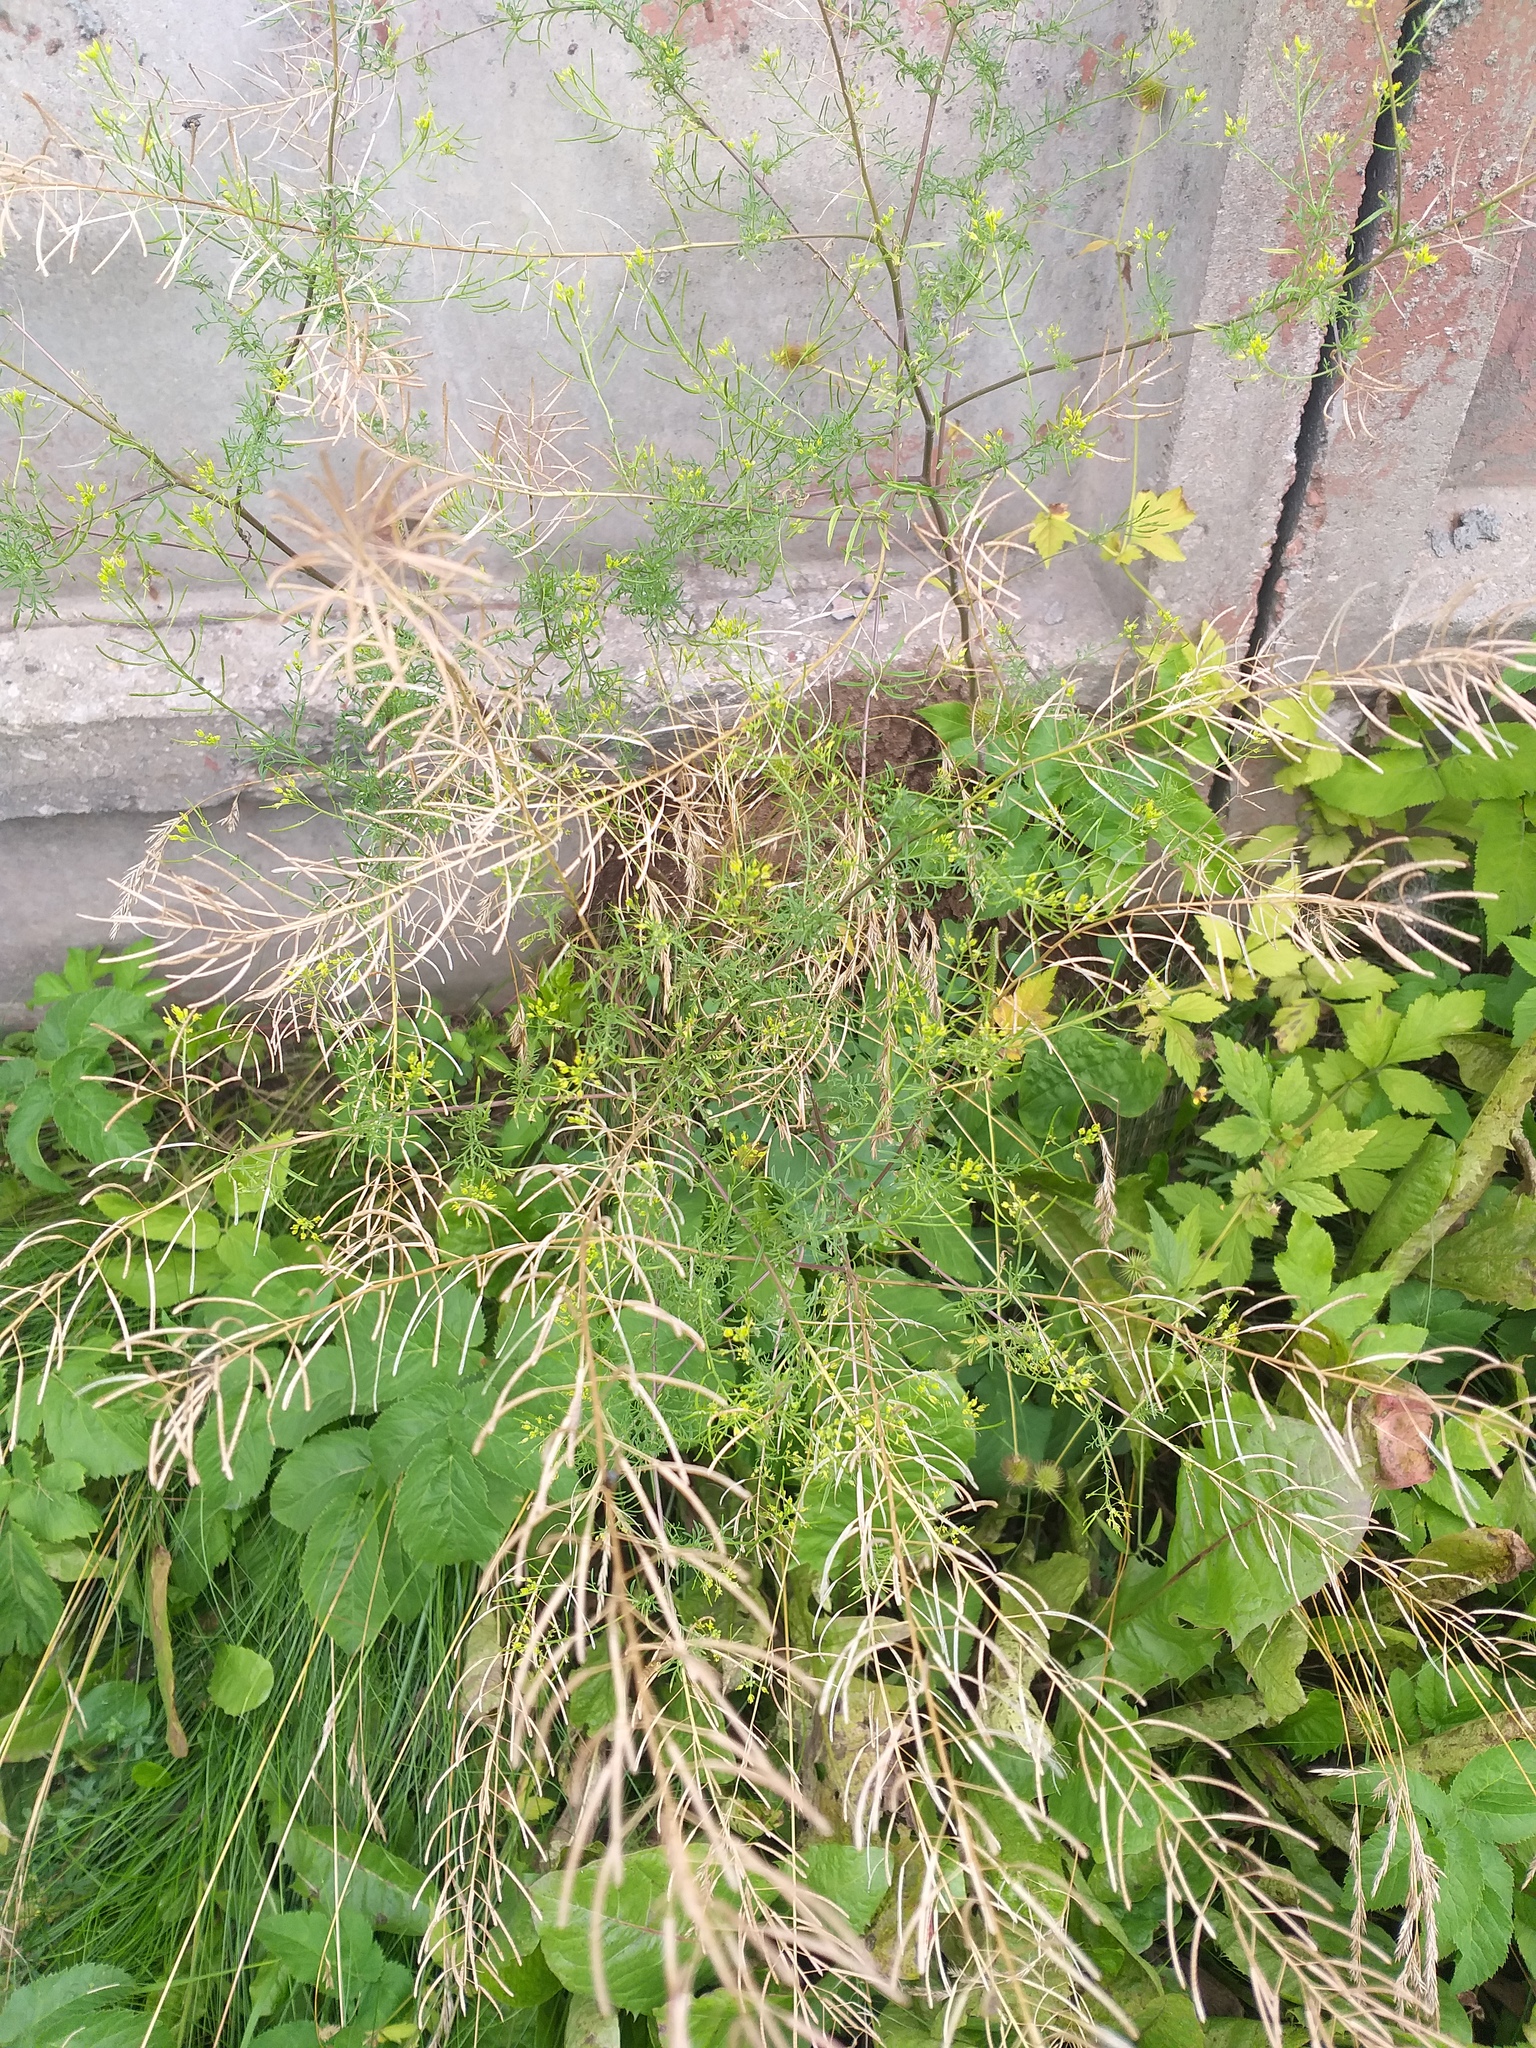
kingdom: Plantae
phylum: Tracheophyta
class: Magnoliopsida
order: Brassicales
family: Brassicaceae
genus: Descurainia
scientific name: Descurainia sophia
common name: Flixweed
